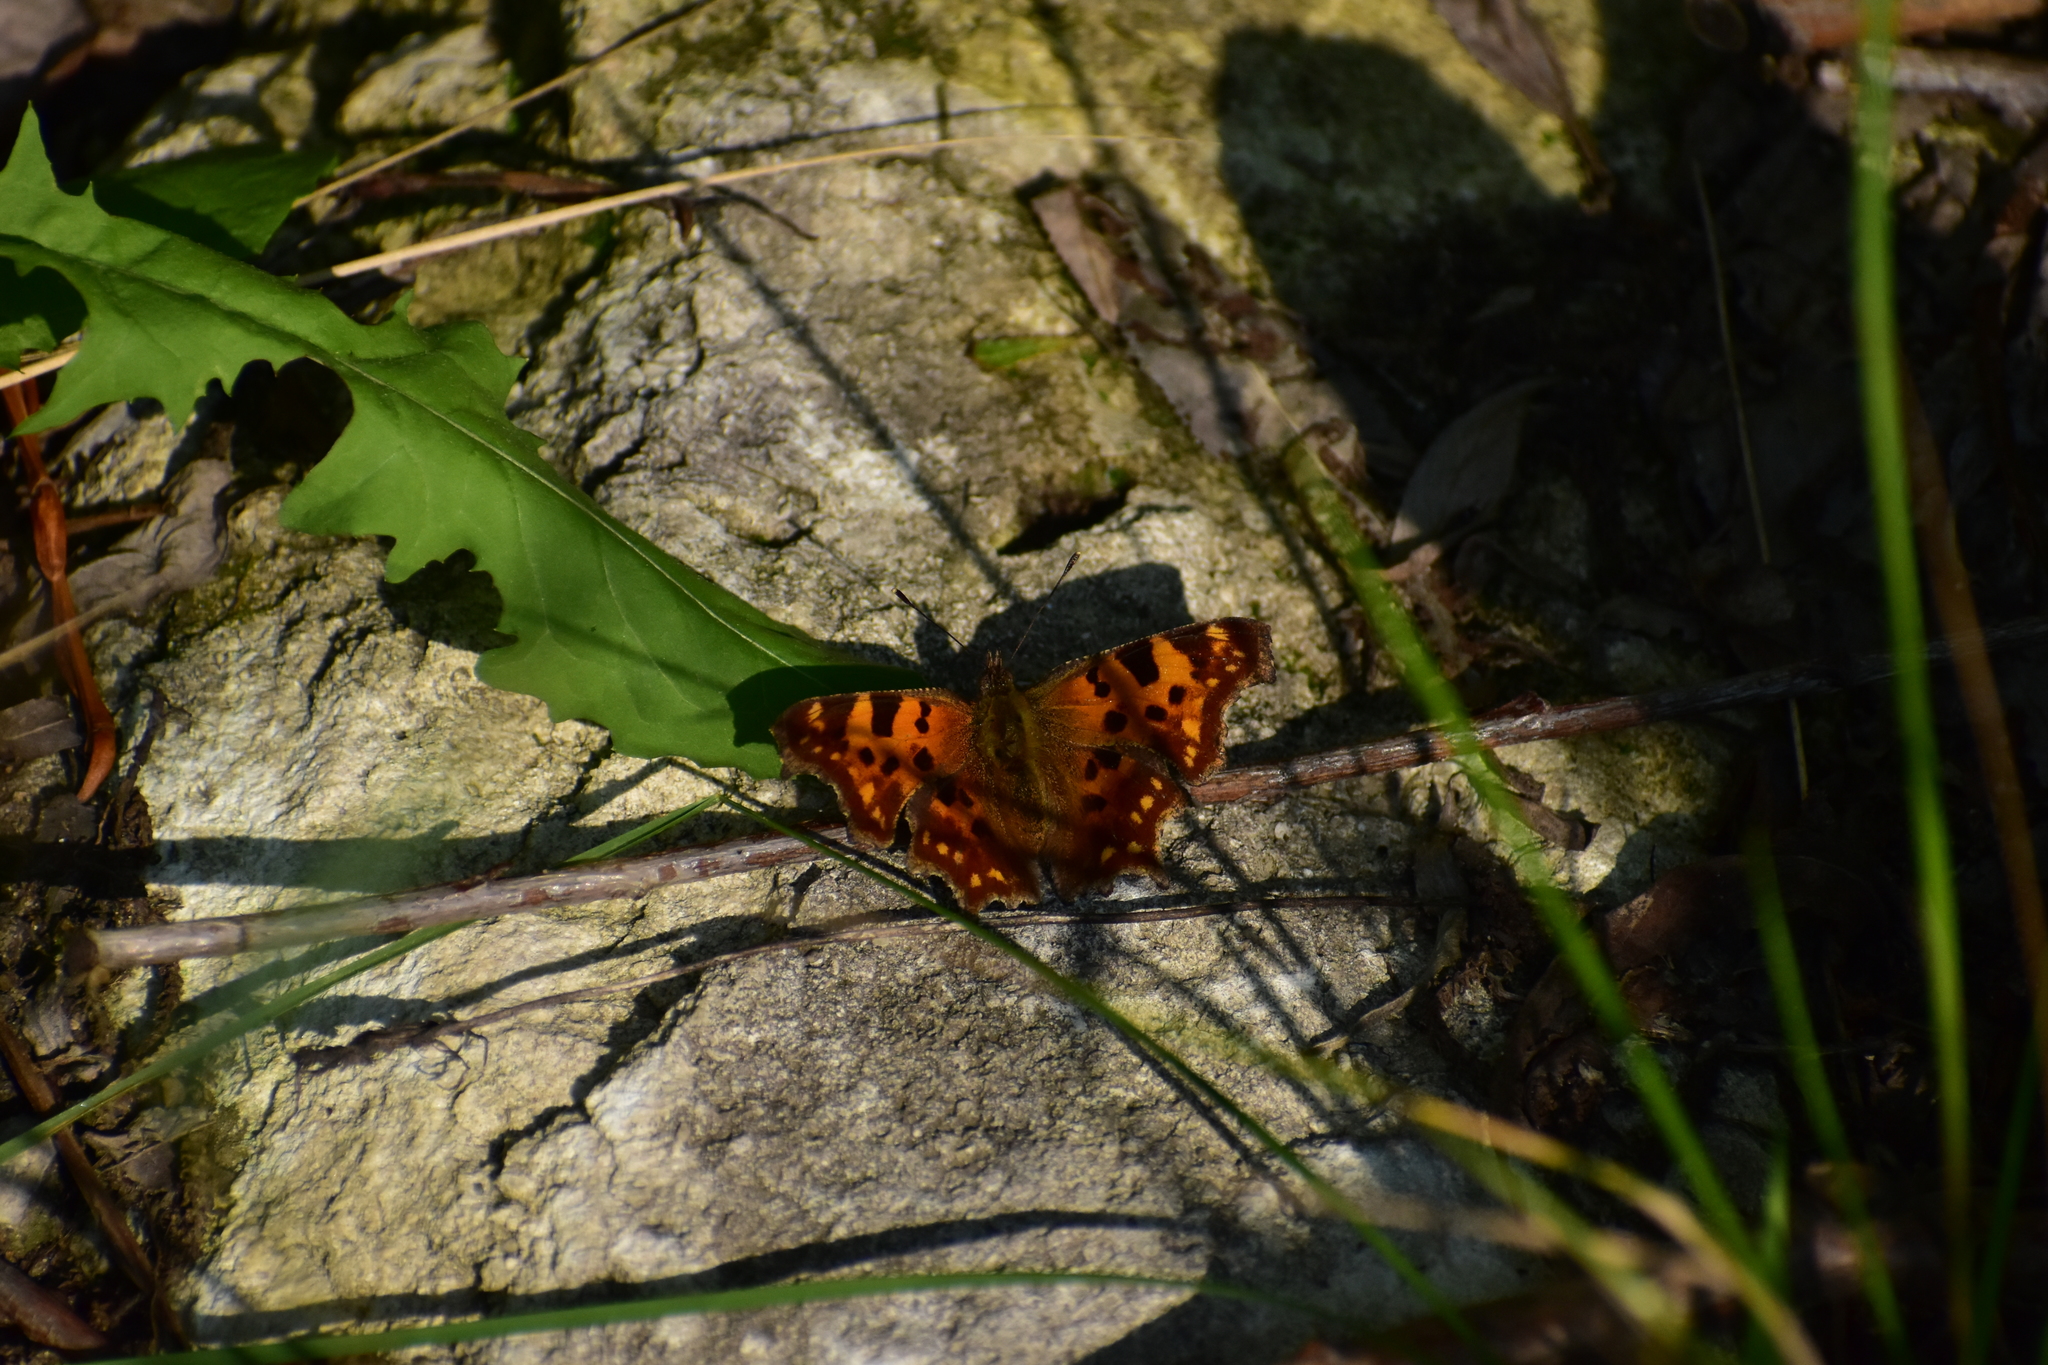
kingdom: Animalia
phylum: Arthropoda
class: Insecta
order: Lepidoptera
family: Nymphalidae
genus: Polygonia
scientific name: Polygonia c-album
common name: Comma
